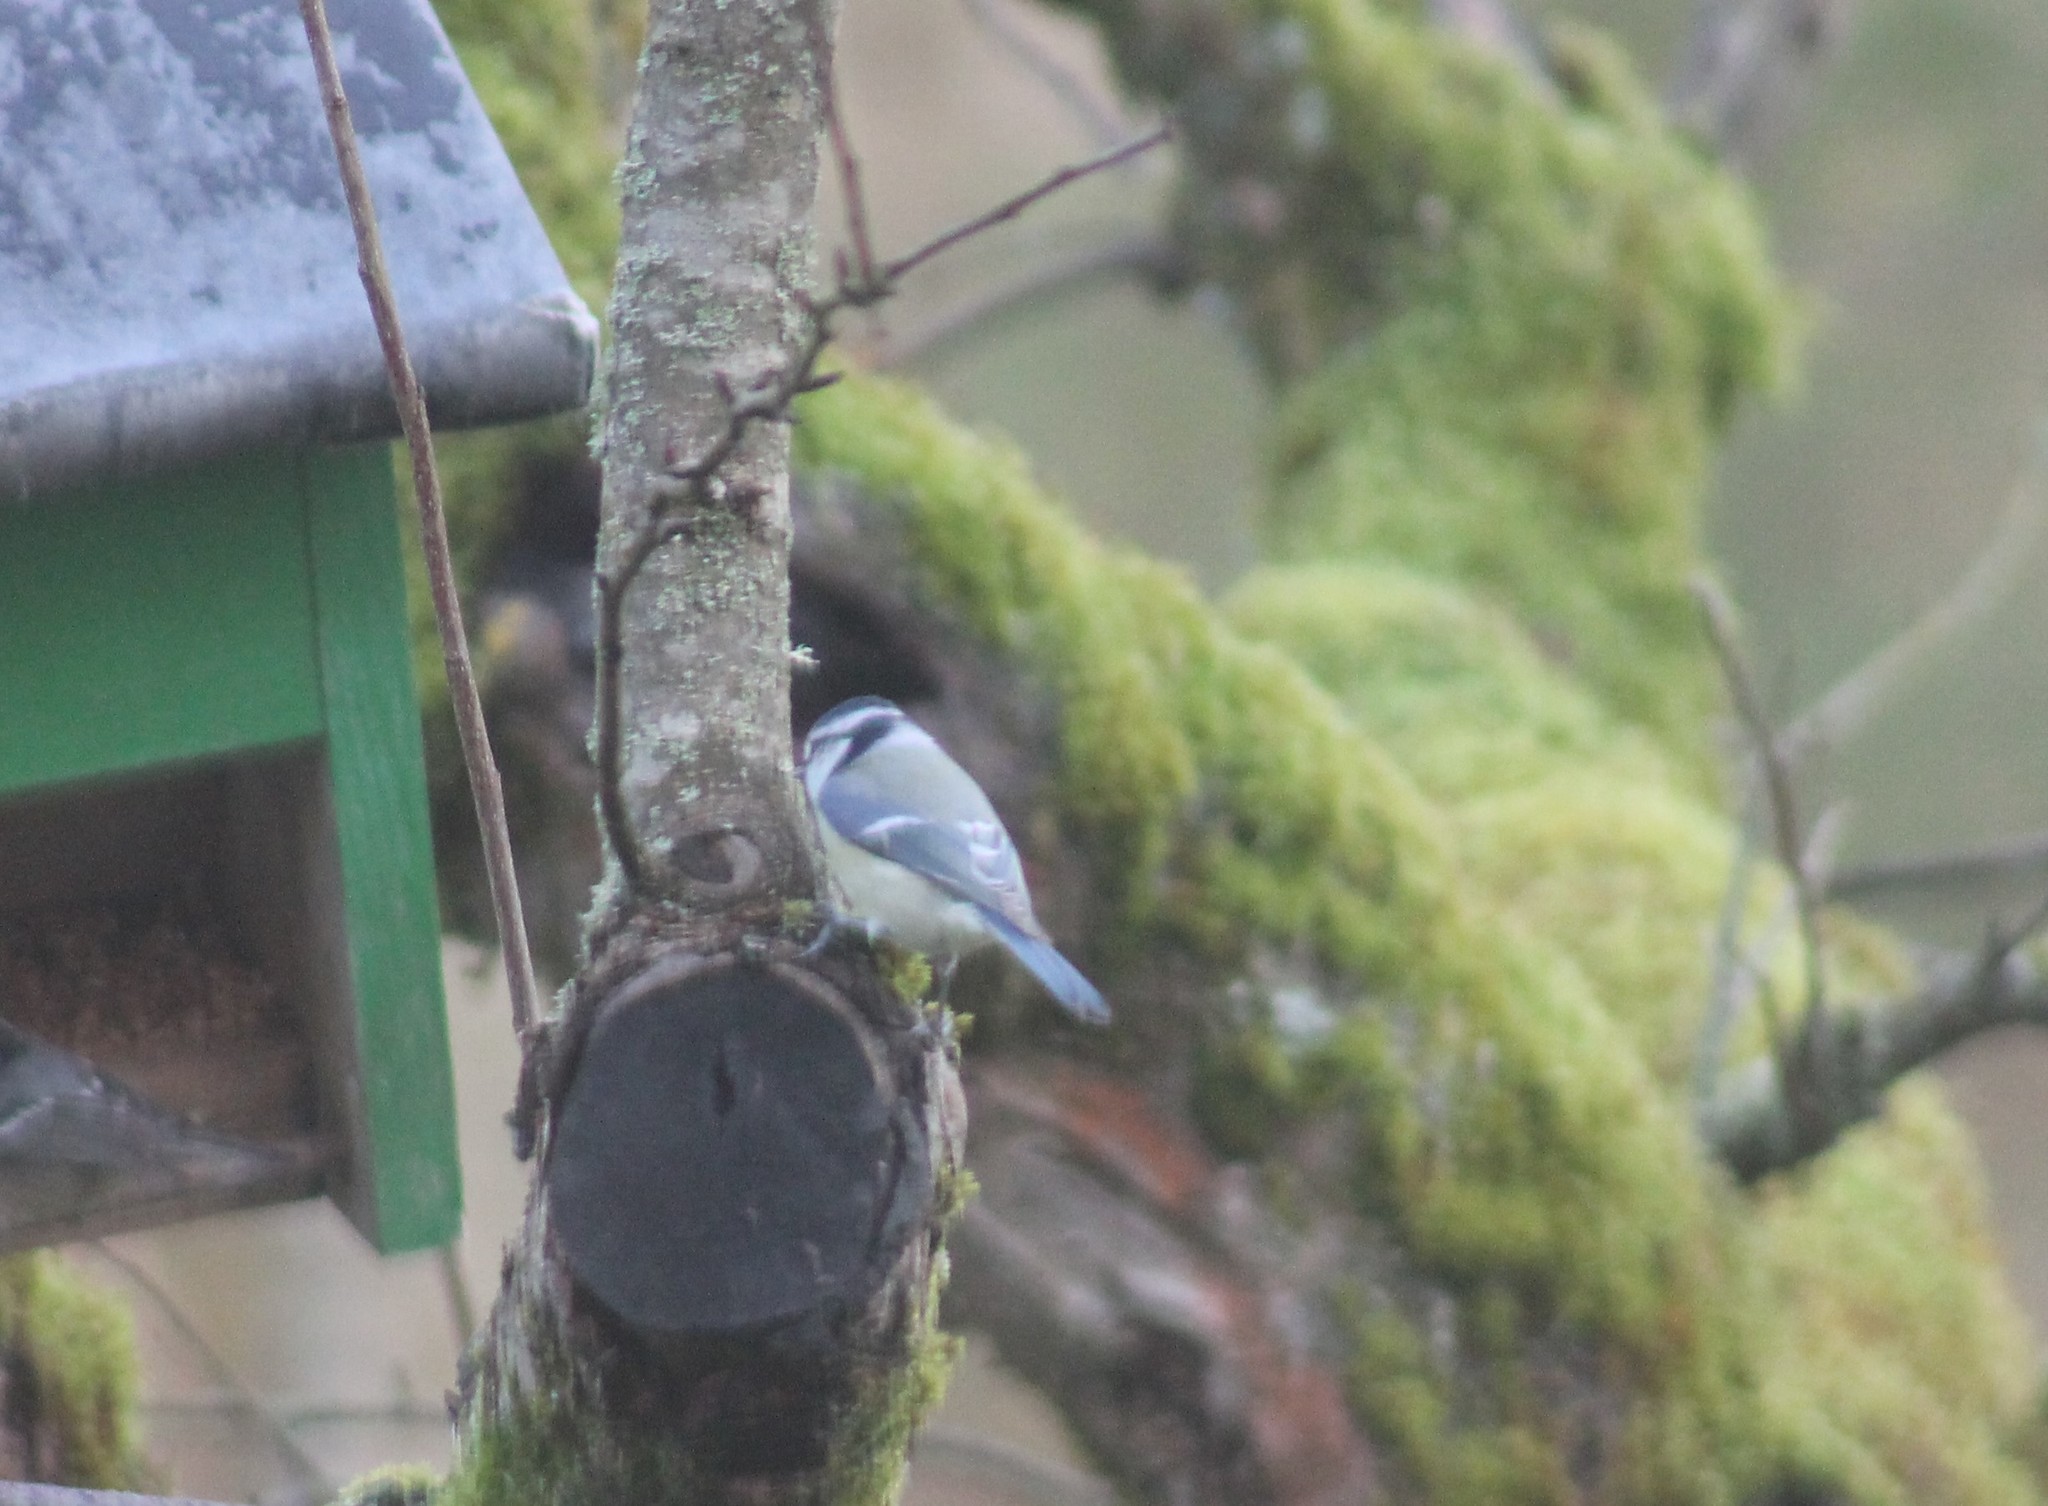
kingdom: Animalia
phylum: Chordata
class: Aves
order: Passeriformes
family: Paridae
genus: Cyanistes
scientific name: Cyanistes caeruleus
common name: Eurasian blue tit
